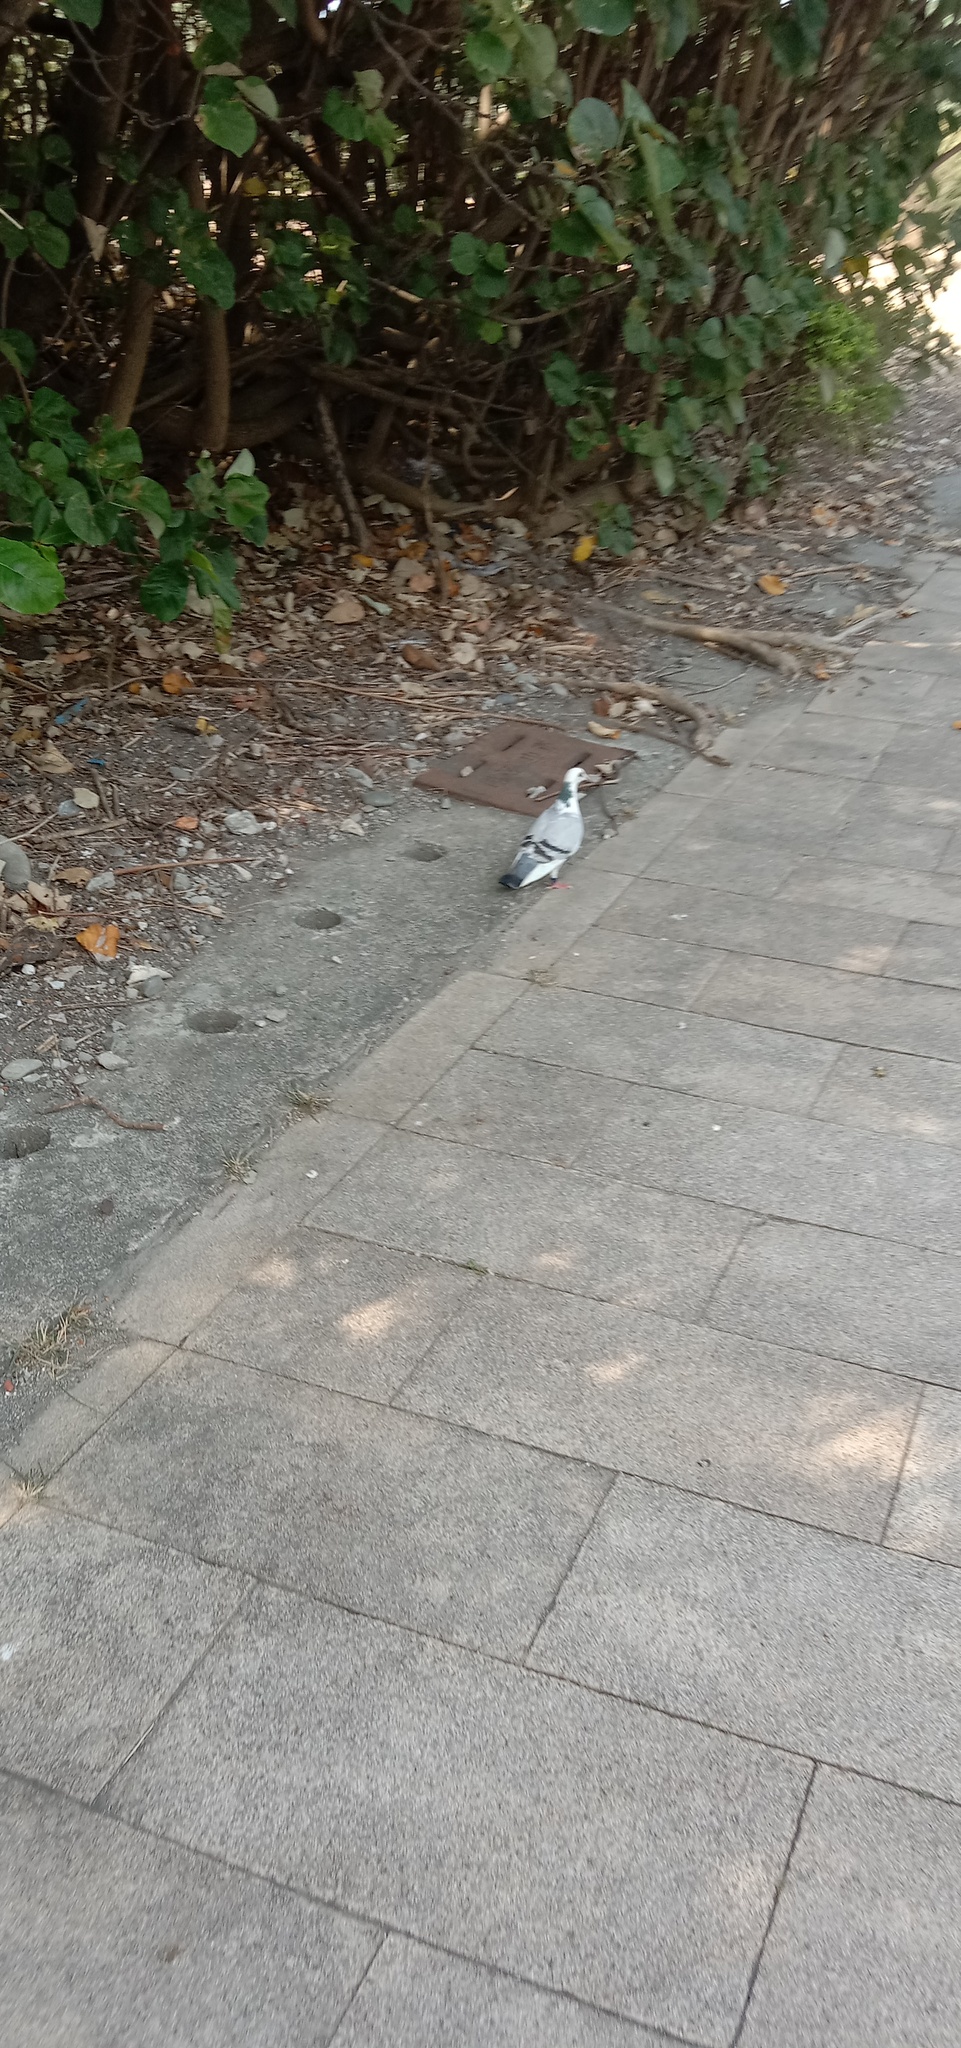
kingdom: Animalia
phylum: Chordata
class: Aves
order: Columbiformes
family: Columbidae
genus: Columba
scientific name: Columba livia
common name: Rock pigeon
